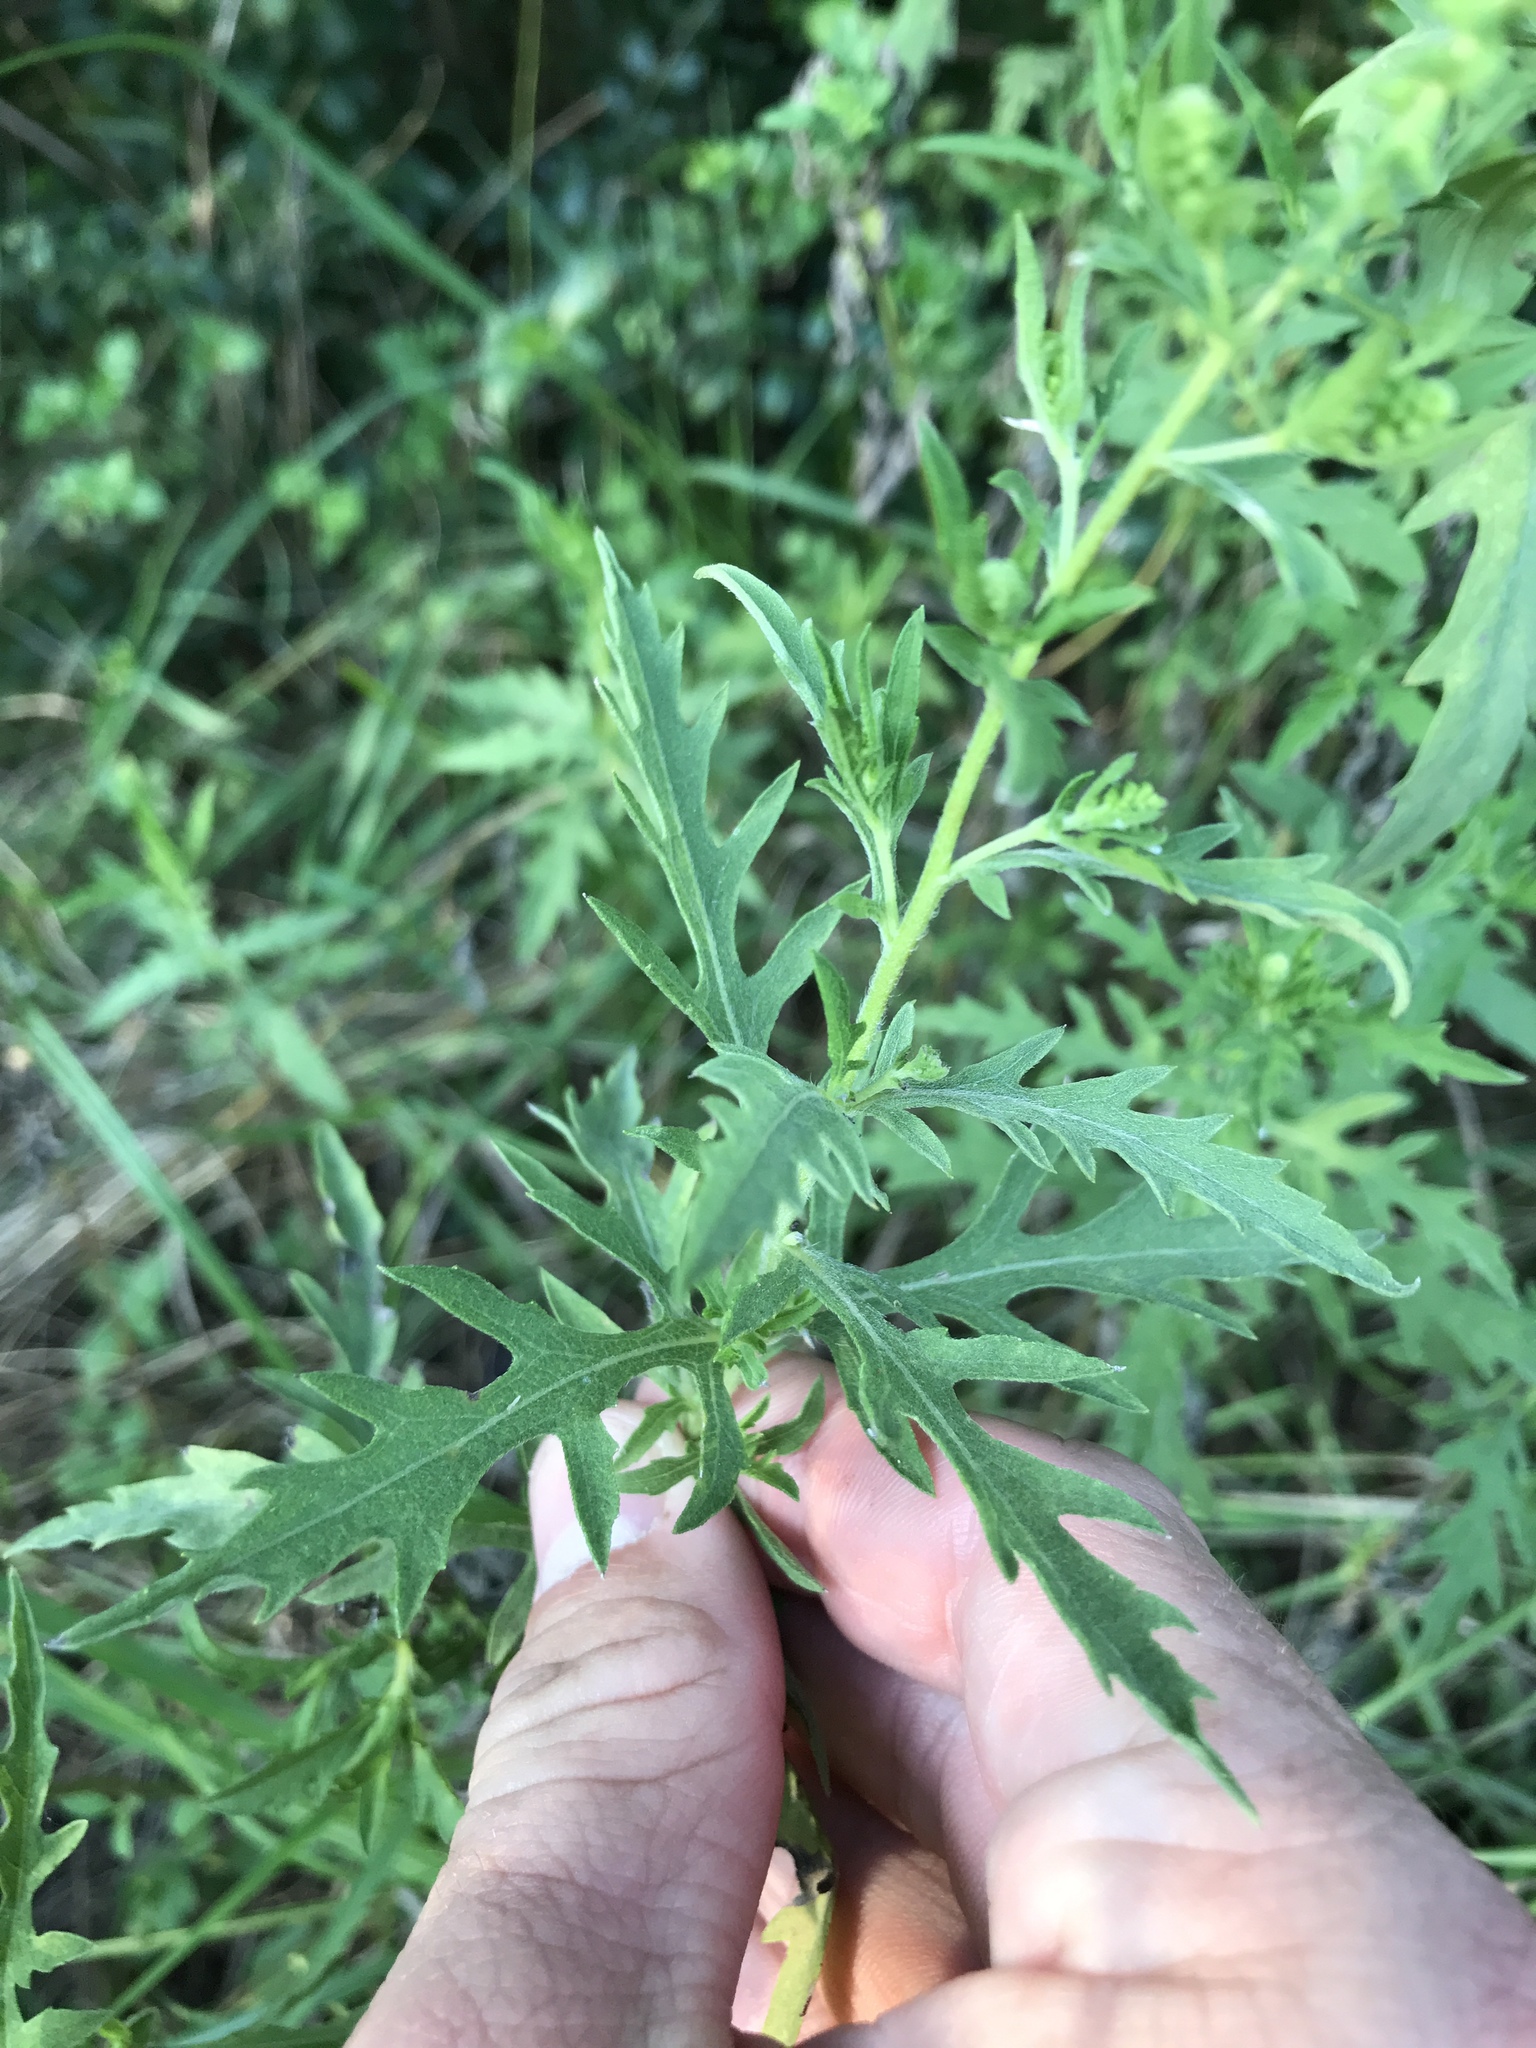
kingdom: Plantae
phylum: Tracheophyta
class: Magnoliopsida
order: Asterales
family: Asteraceae
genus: Ambrosia
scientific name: Ambrosia psilostachya
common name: Perennial ragweed
